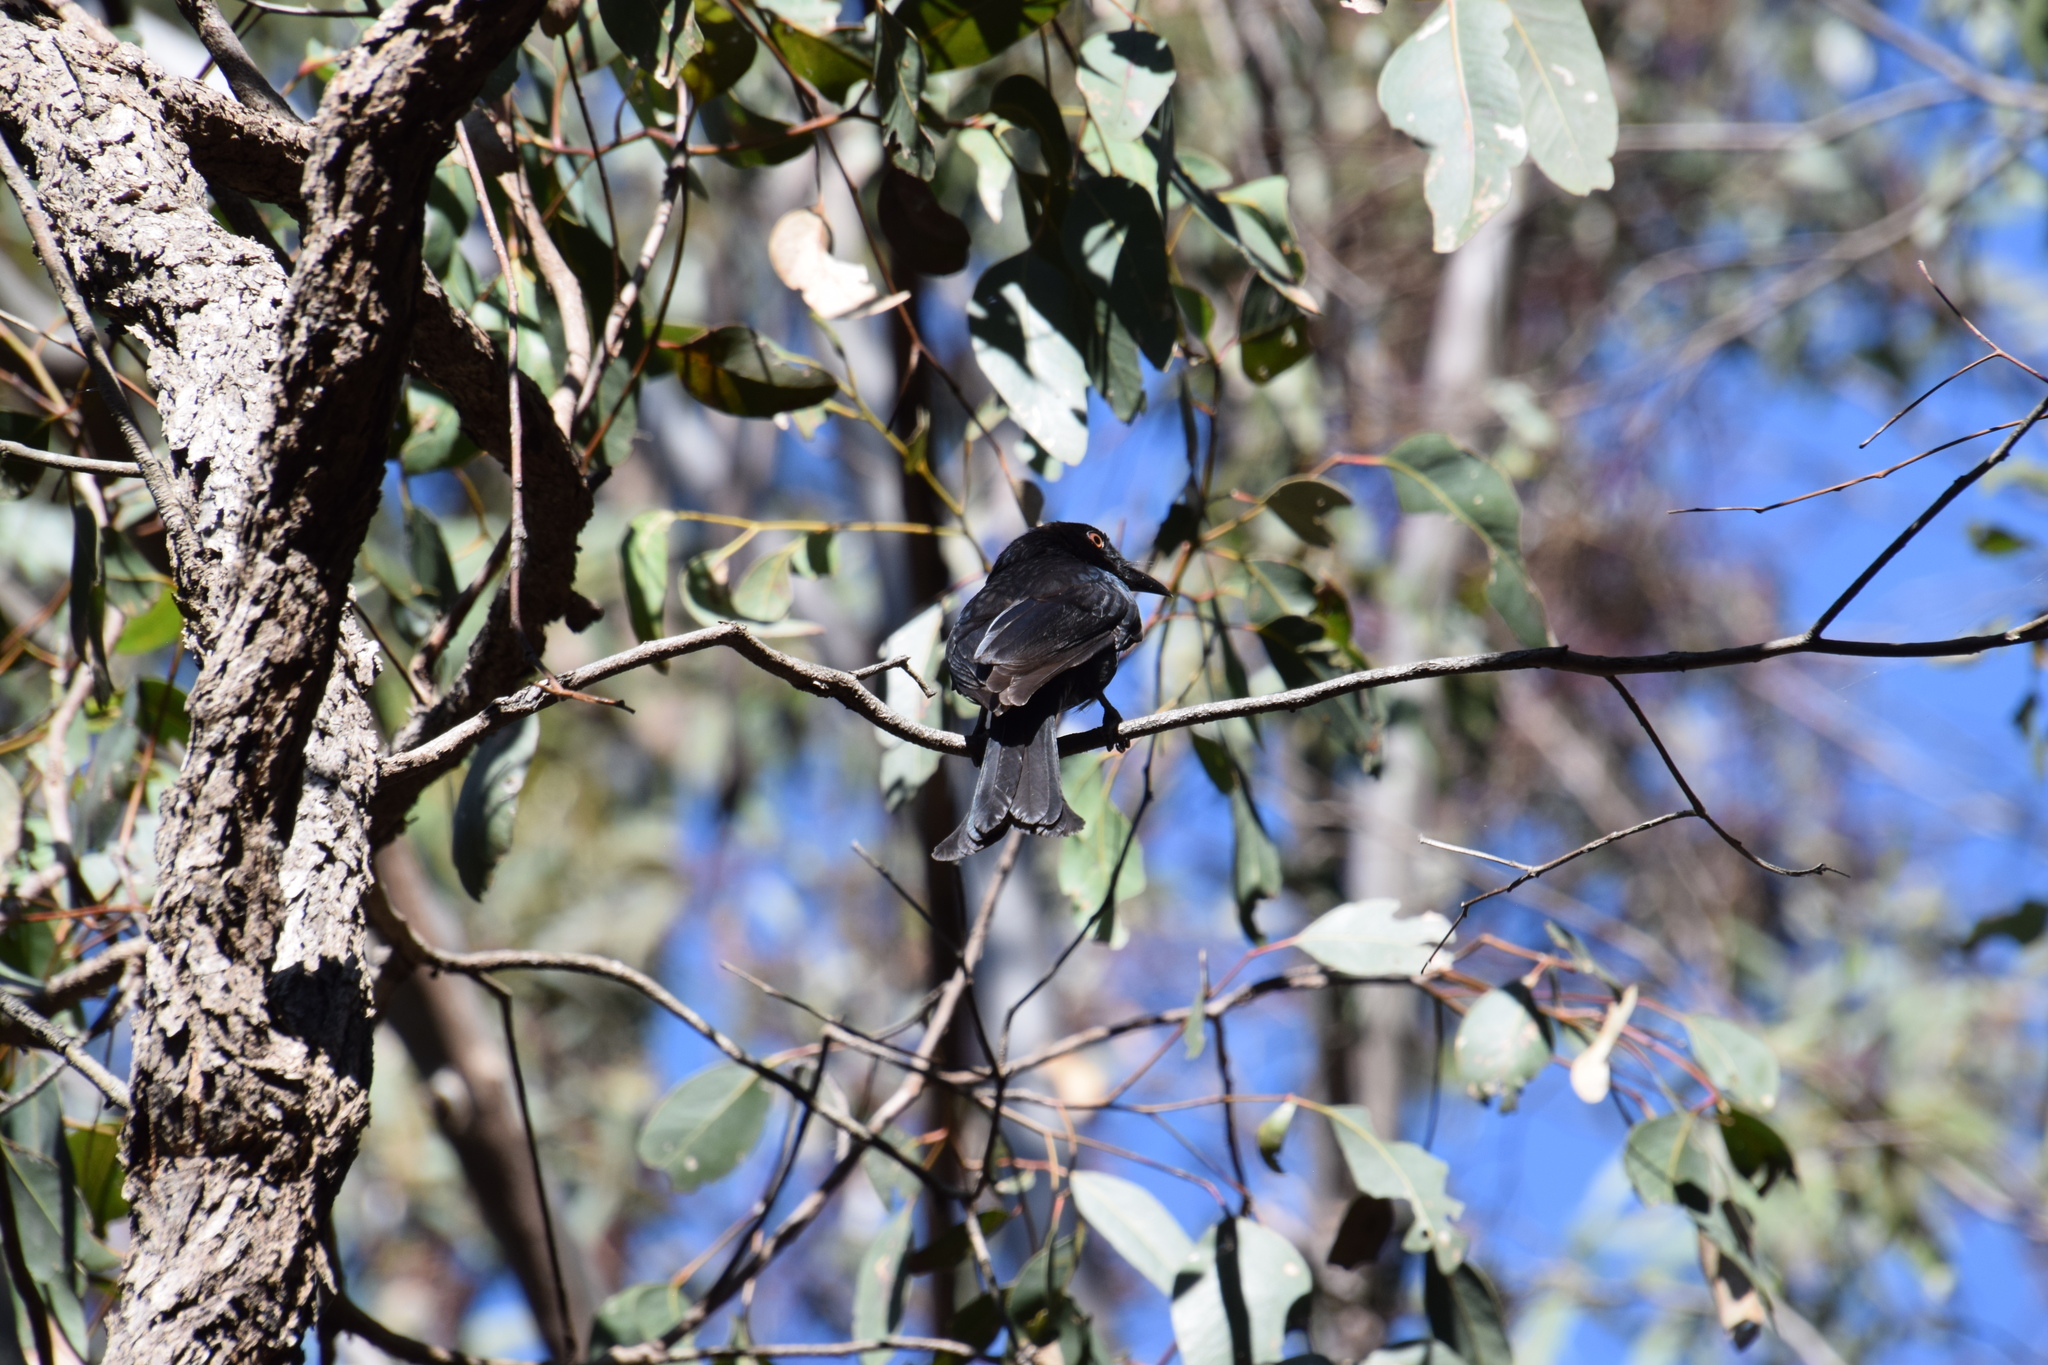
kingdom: Animalia
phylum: Chordata
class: Aves
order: Passeriformes
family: Dicruridae
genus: Dicrurus
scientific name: Dicrurus bracteatus
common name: Spangled drongo
